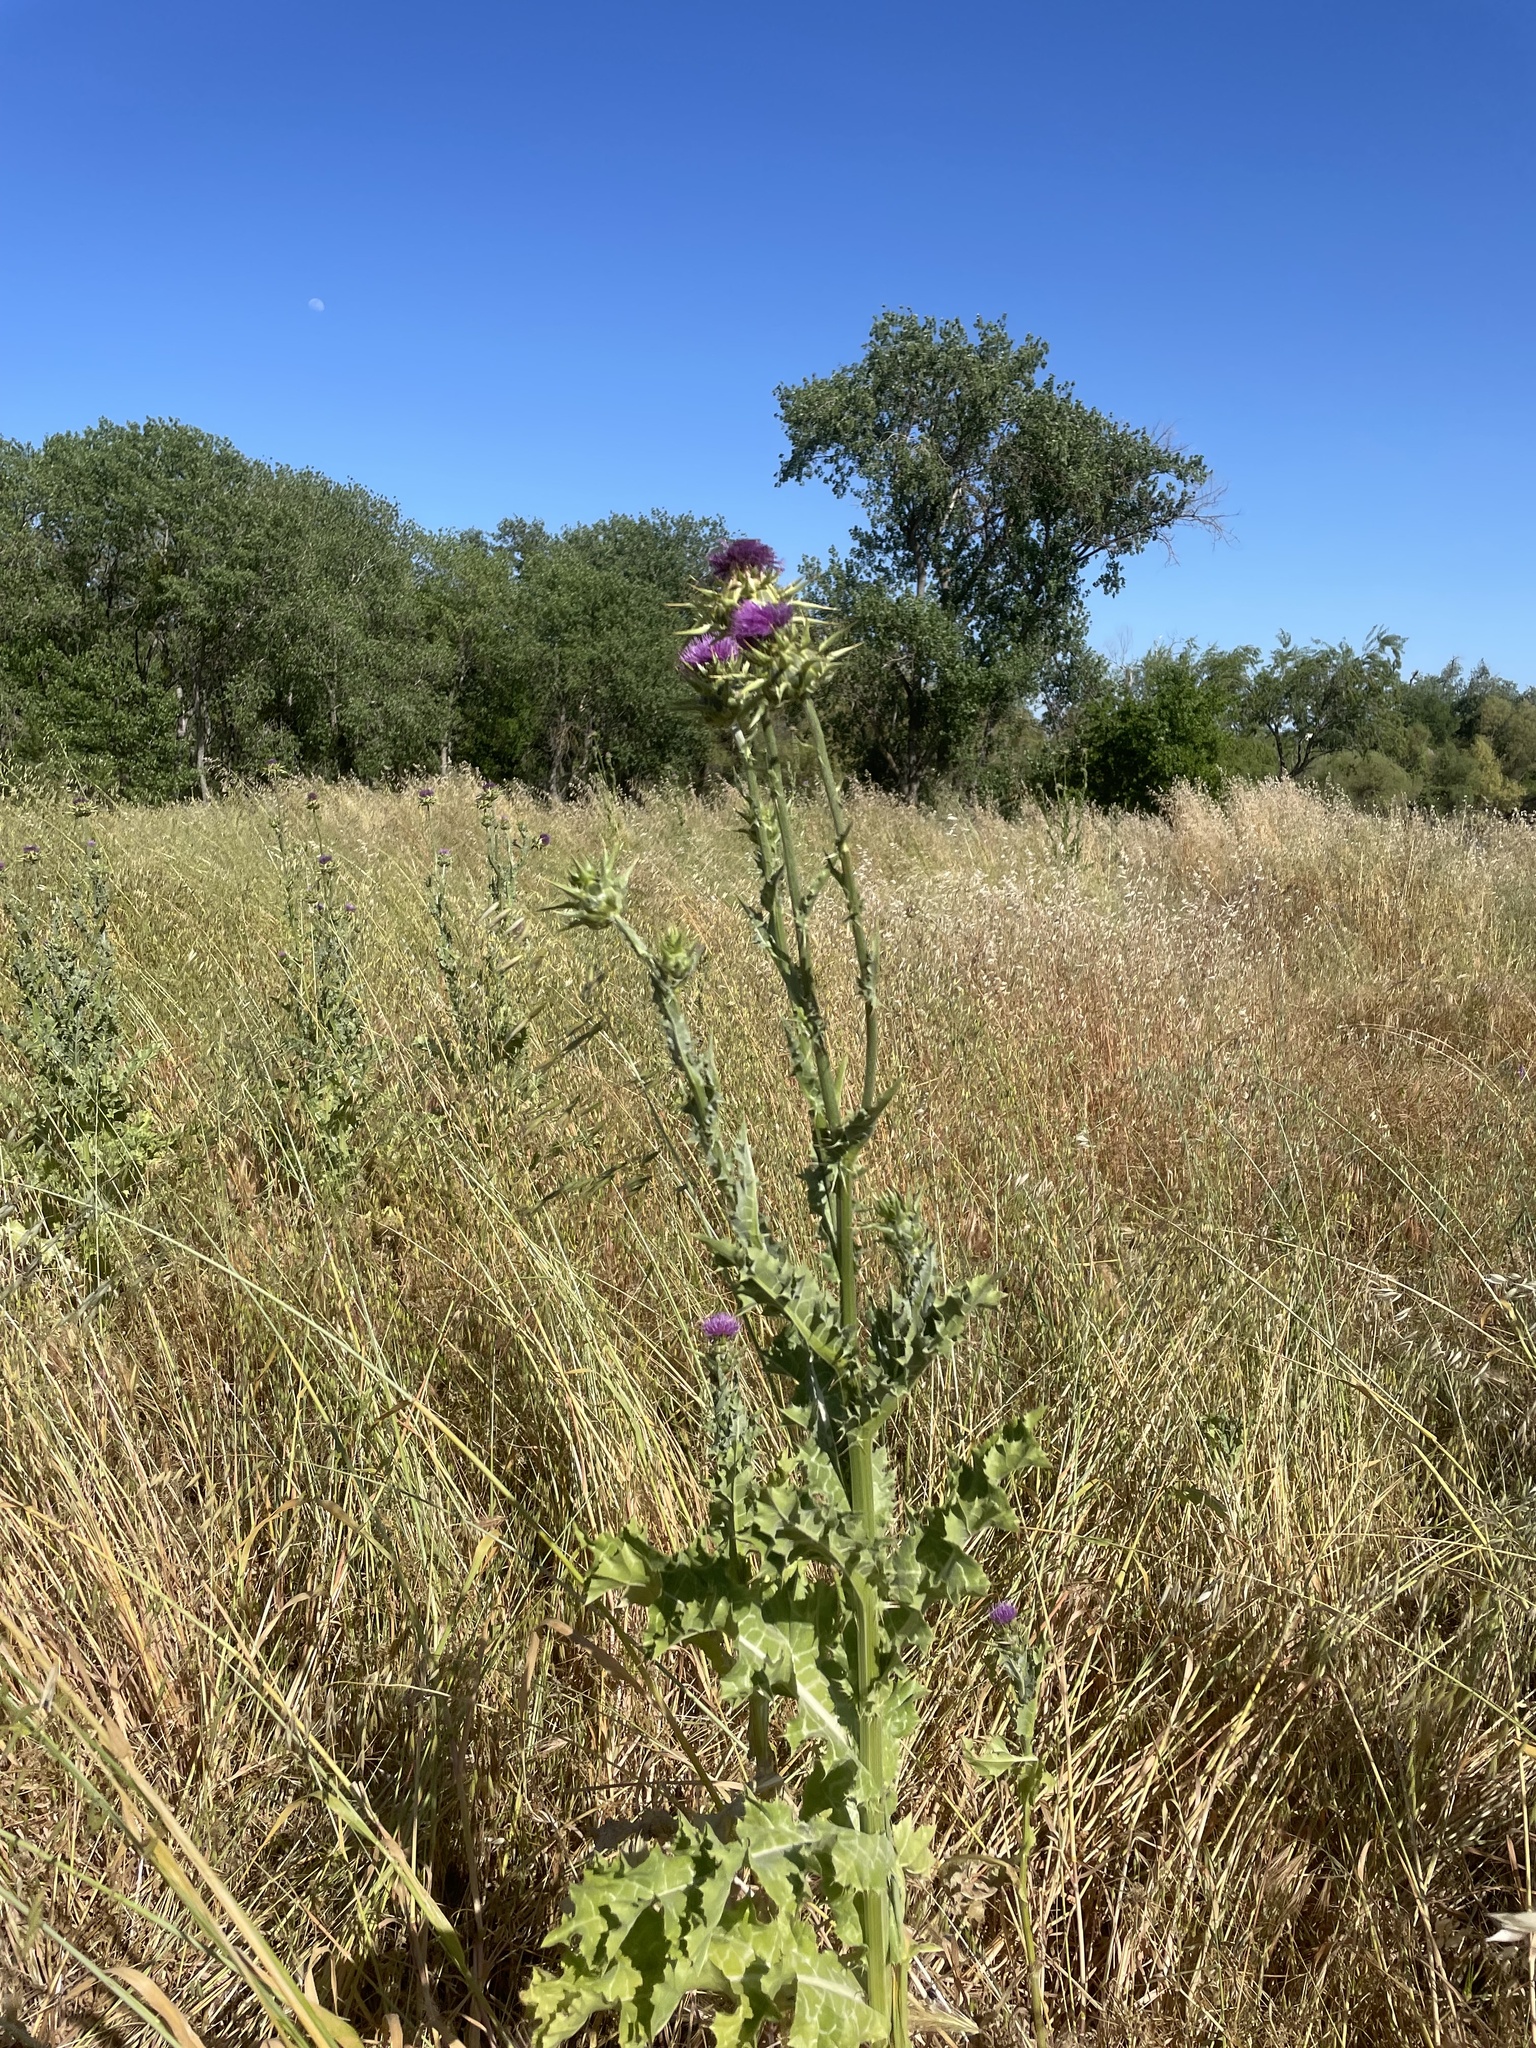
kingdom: Plantae
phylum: Tracheophyta
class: Magnoliopsida
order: Asterales
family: Asteraceae
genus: Silybum
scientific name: Silybum marianum
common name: Milk thistle
